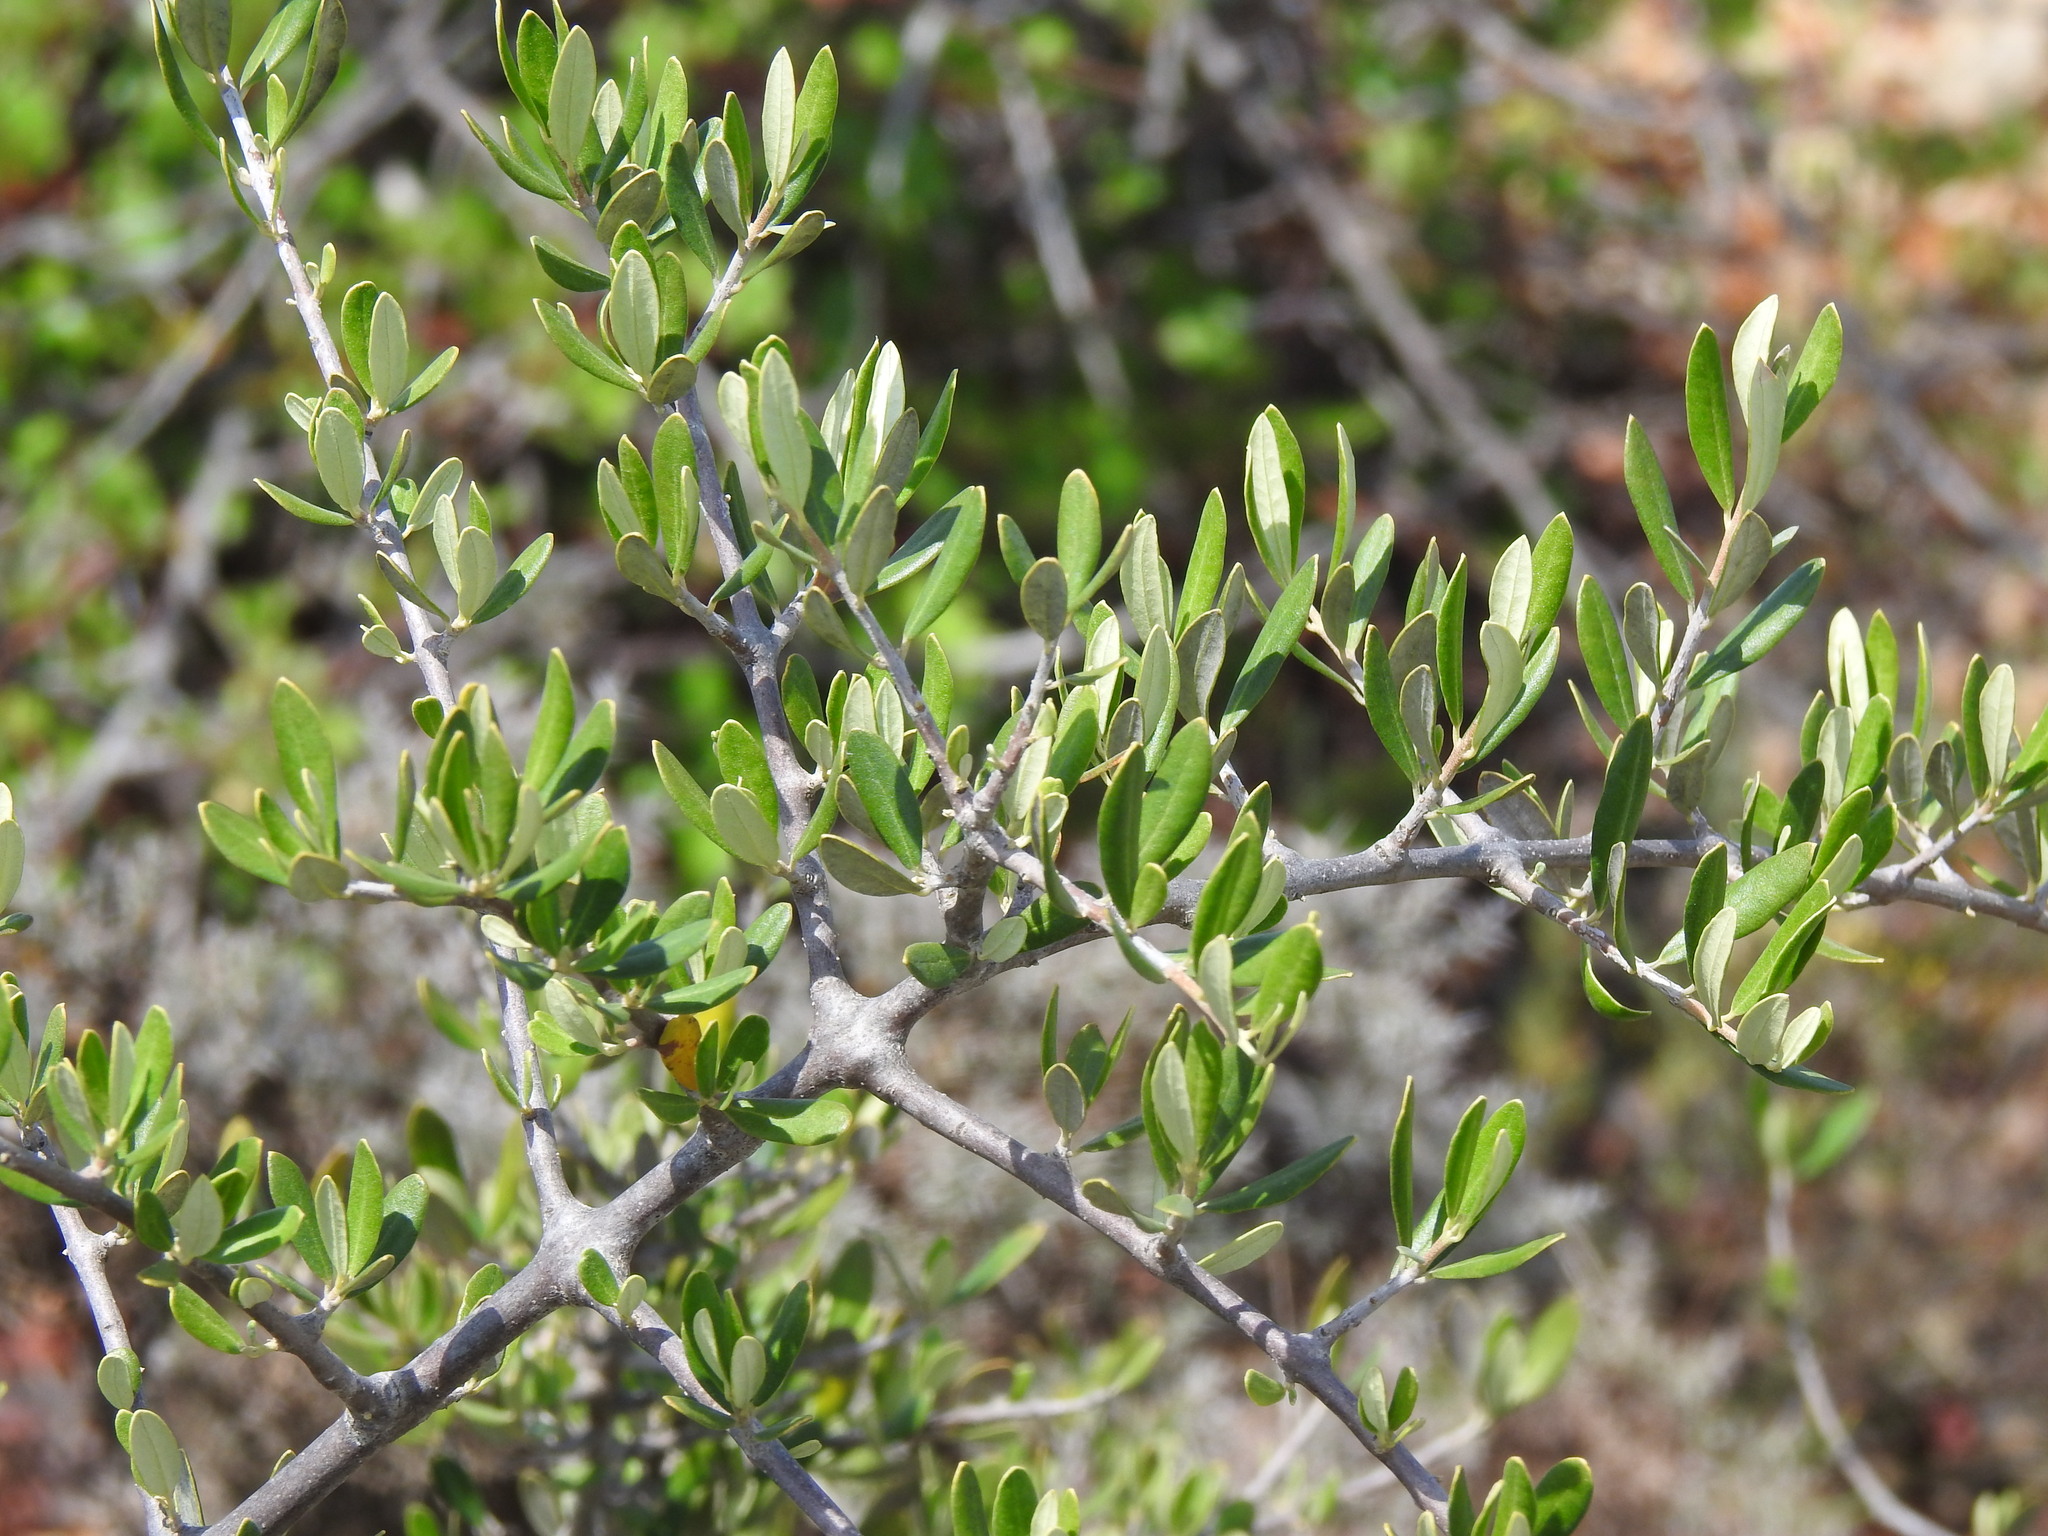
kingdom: Plantae
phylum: Tracheophyta
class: Magnoliopsida
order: Lamiales
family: Oleaceae
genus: Olea
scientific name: Olea europaea
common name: Olive
